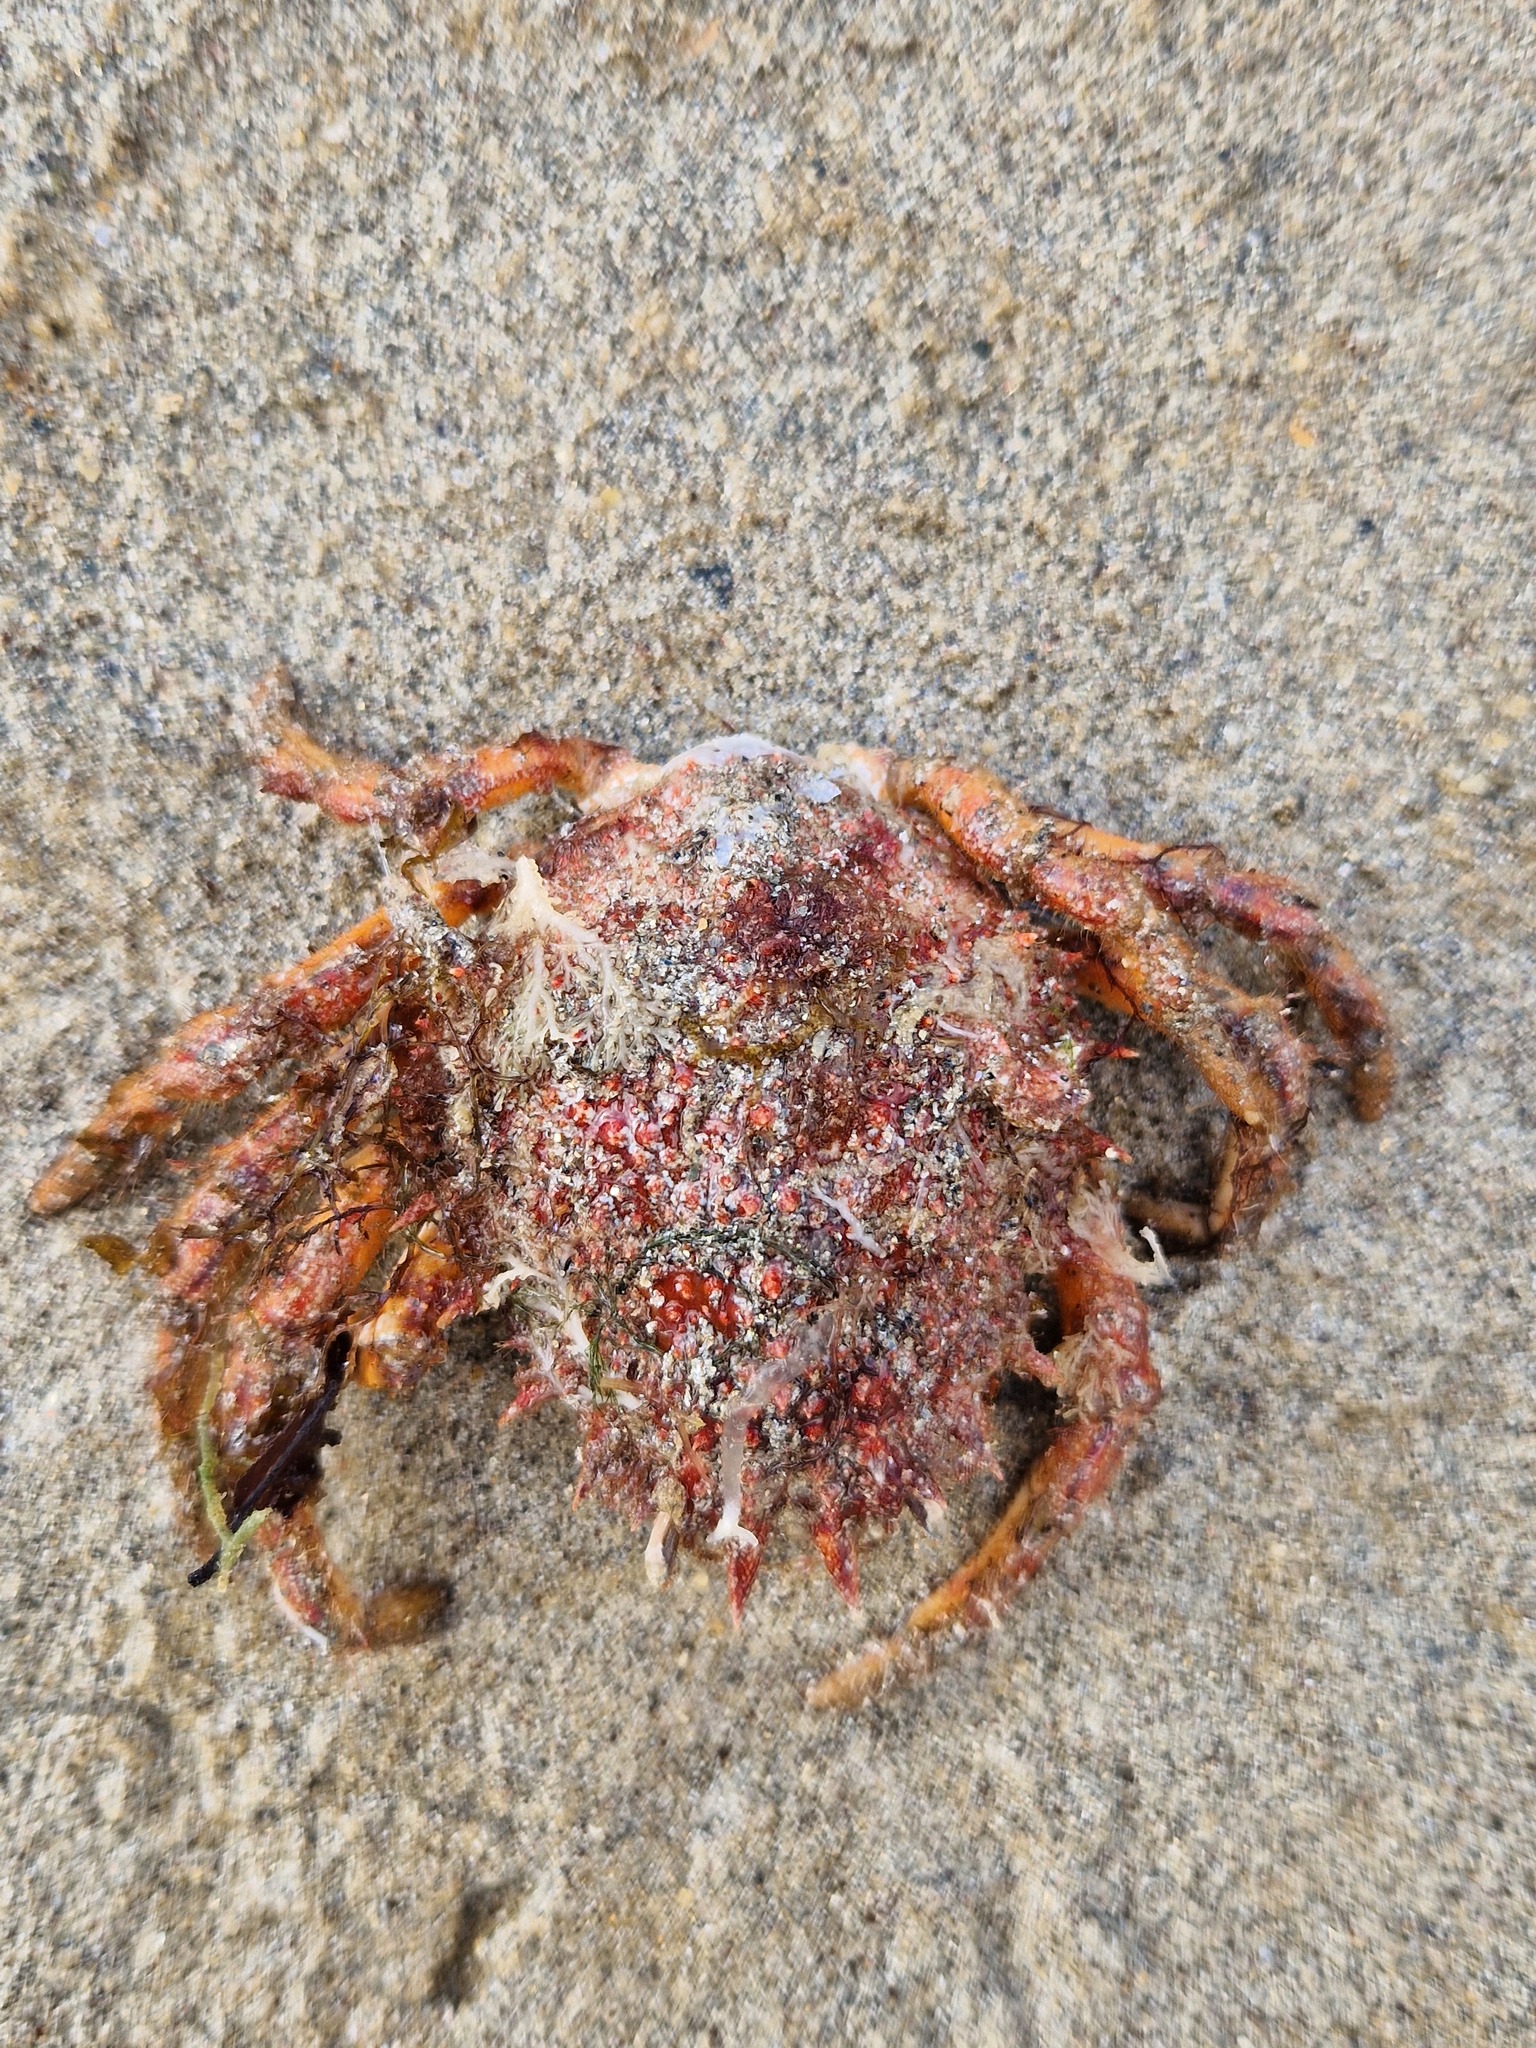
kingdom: Animalia
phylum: Arthropoda
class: Malacostraca
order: Decapoda
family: Majidae
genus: Maja
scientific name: Maja brachydactyla
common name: Common spider crab
